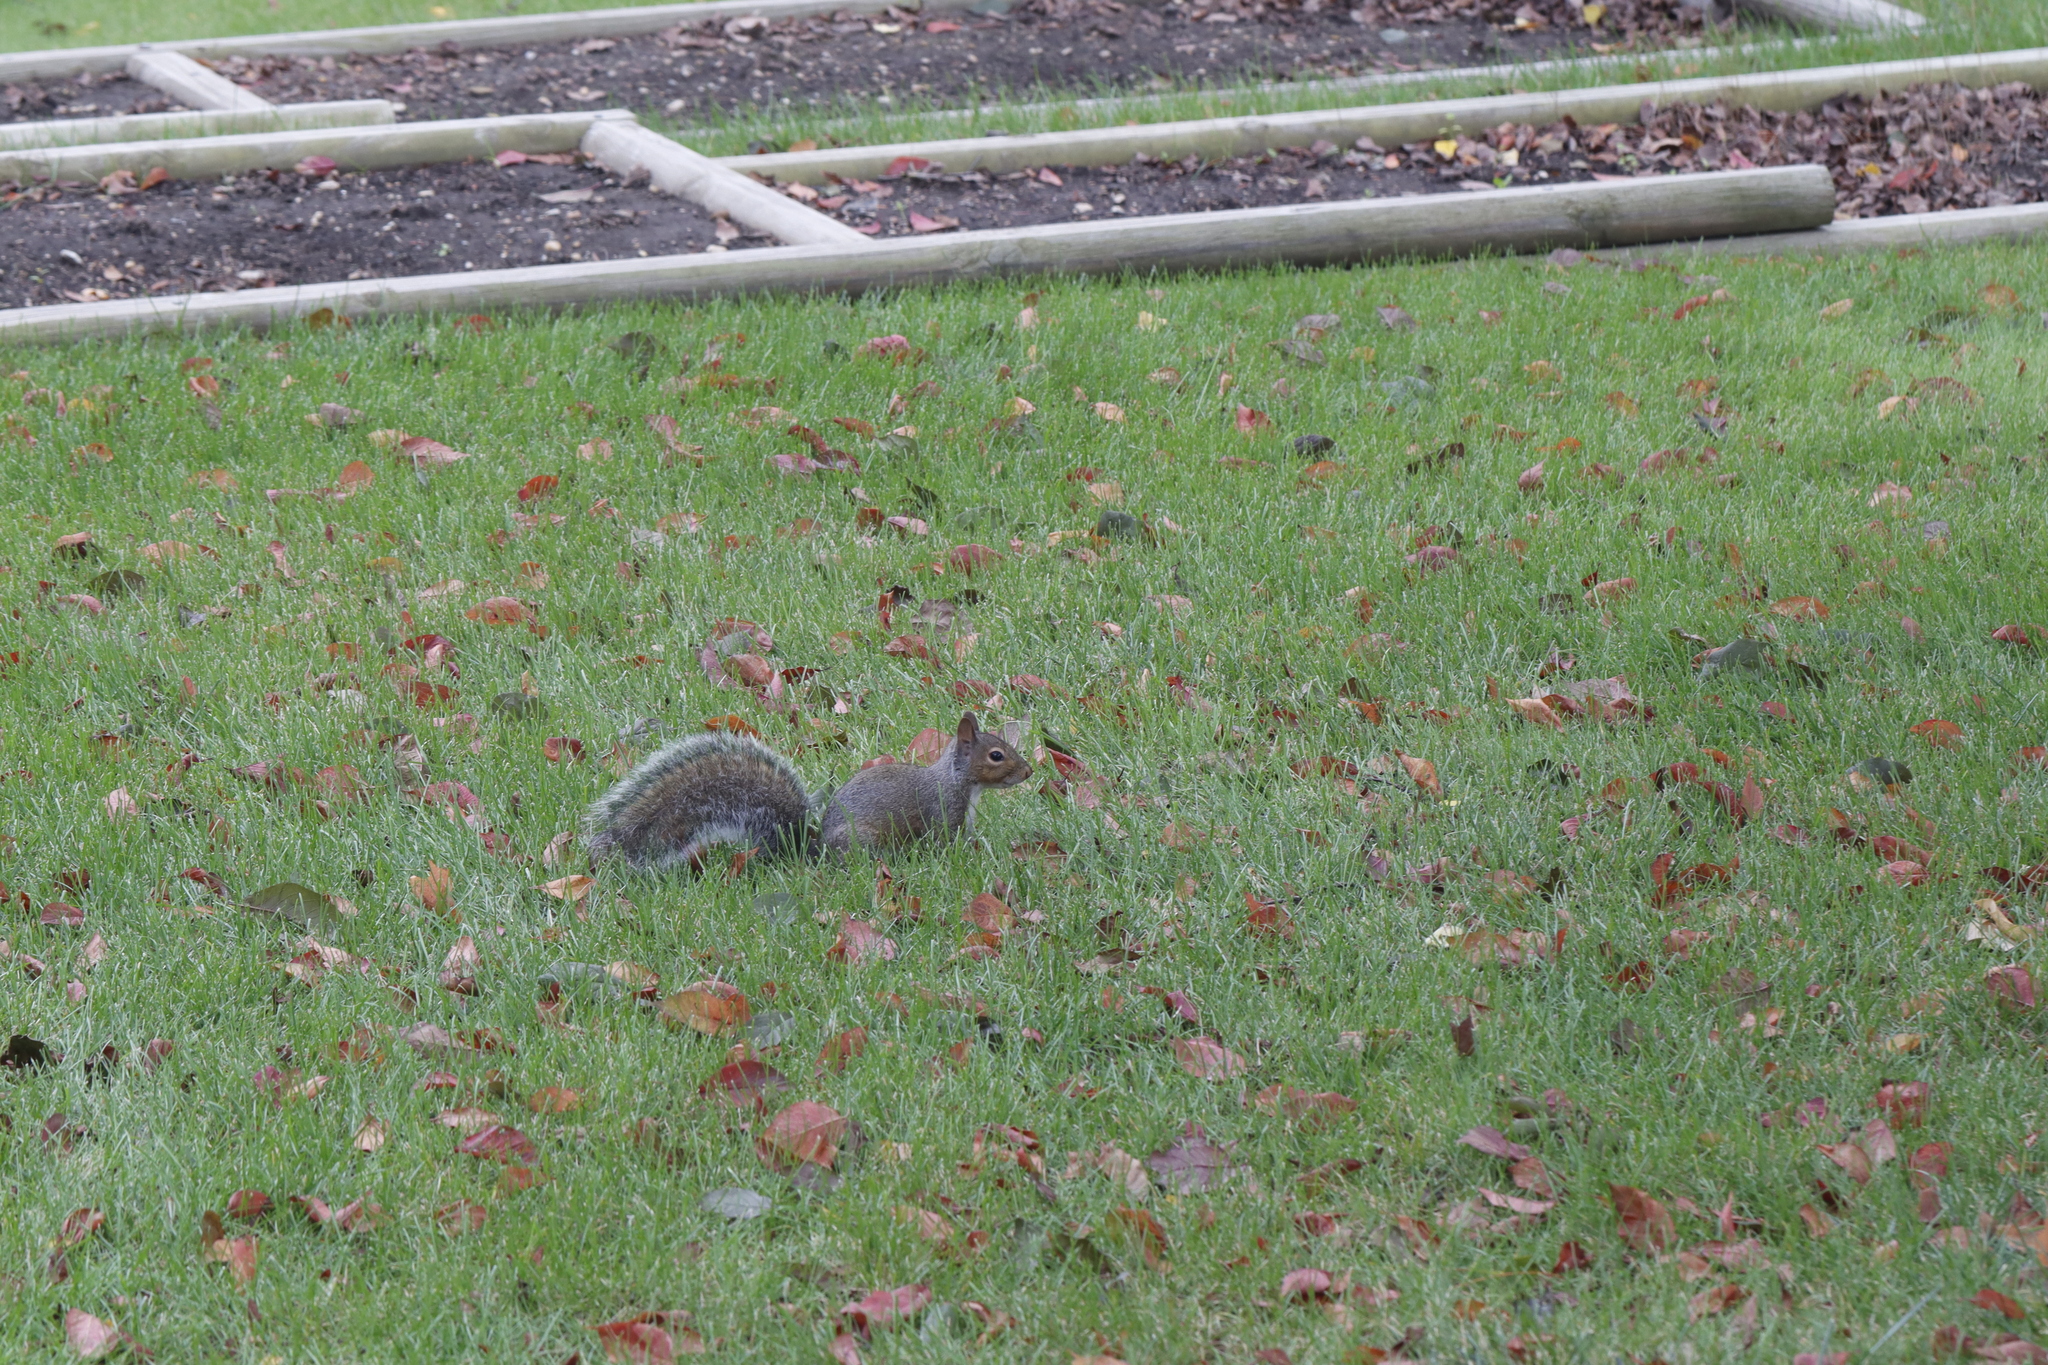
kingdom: Animalia
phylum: Chordata
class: Mammalia
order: Rodentia
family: Sciuridae
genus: Sciurus
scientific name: Sciurus carolinensis
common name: Eastern gray squirrel
